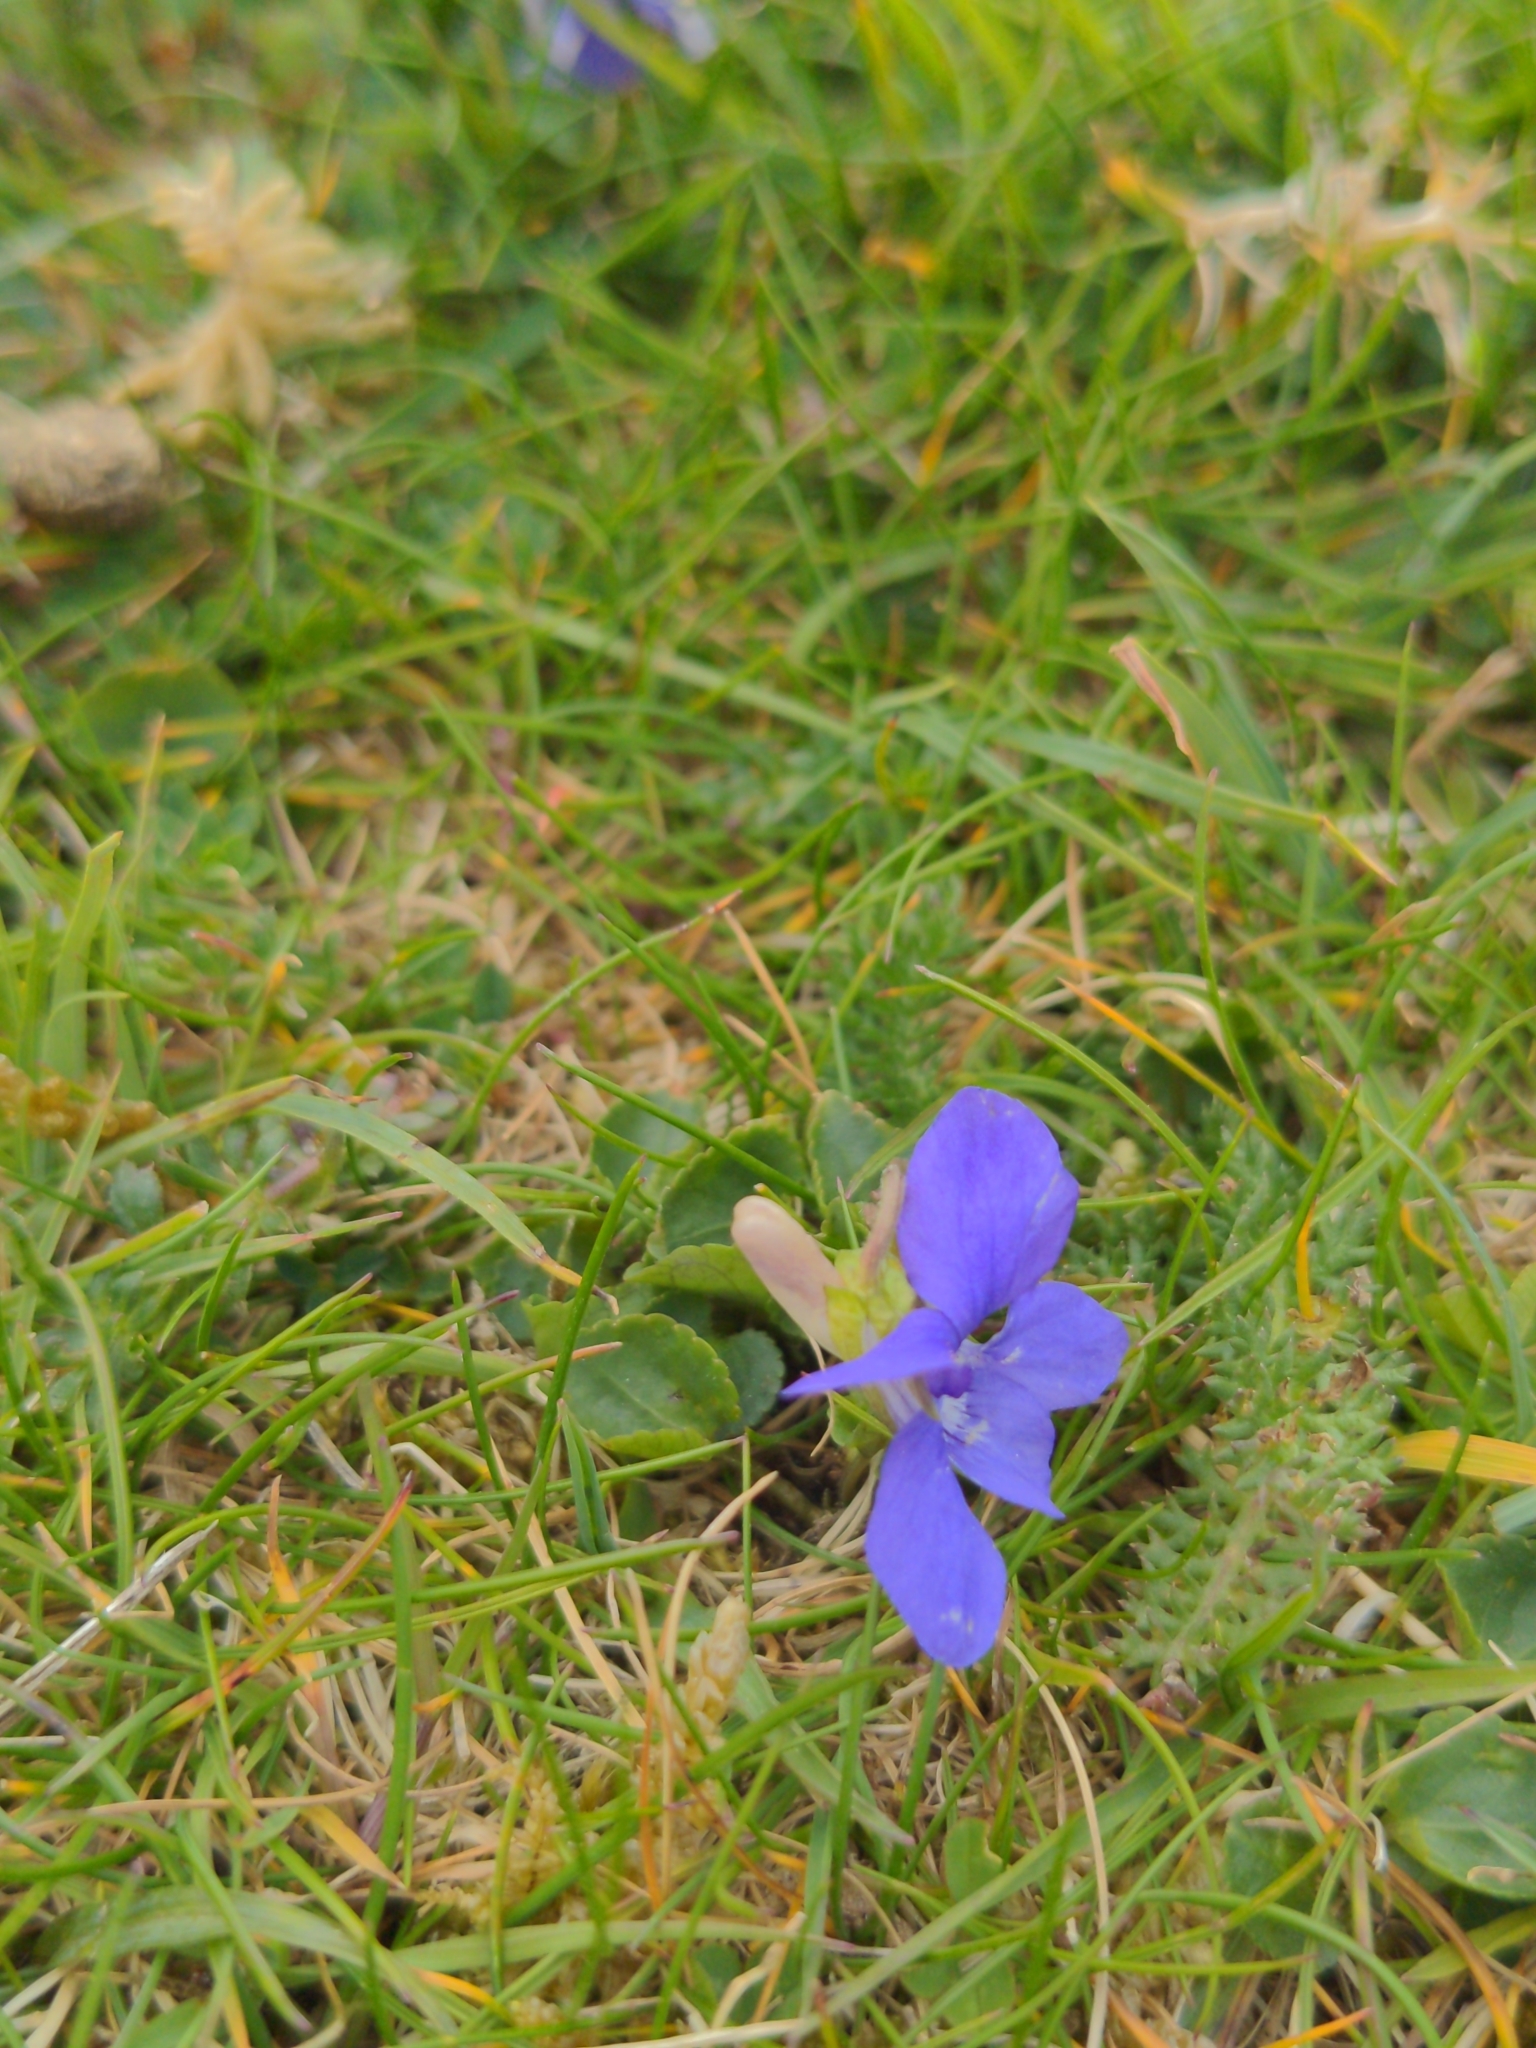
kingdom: Plantae
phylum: Tracheophyta
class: Magnoliopsida
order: Malpighiales
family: Violaceae
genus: Viola
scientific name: Viola riviniana
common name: Common dog-violet
